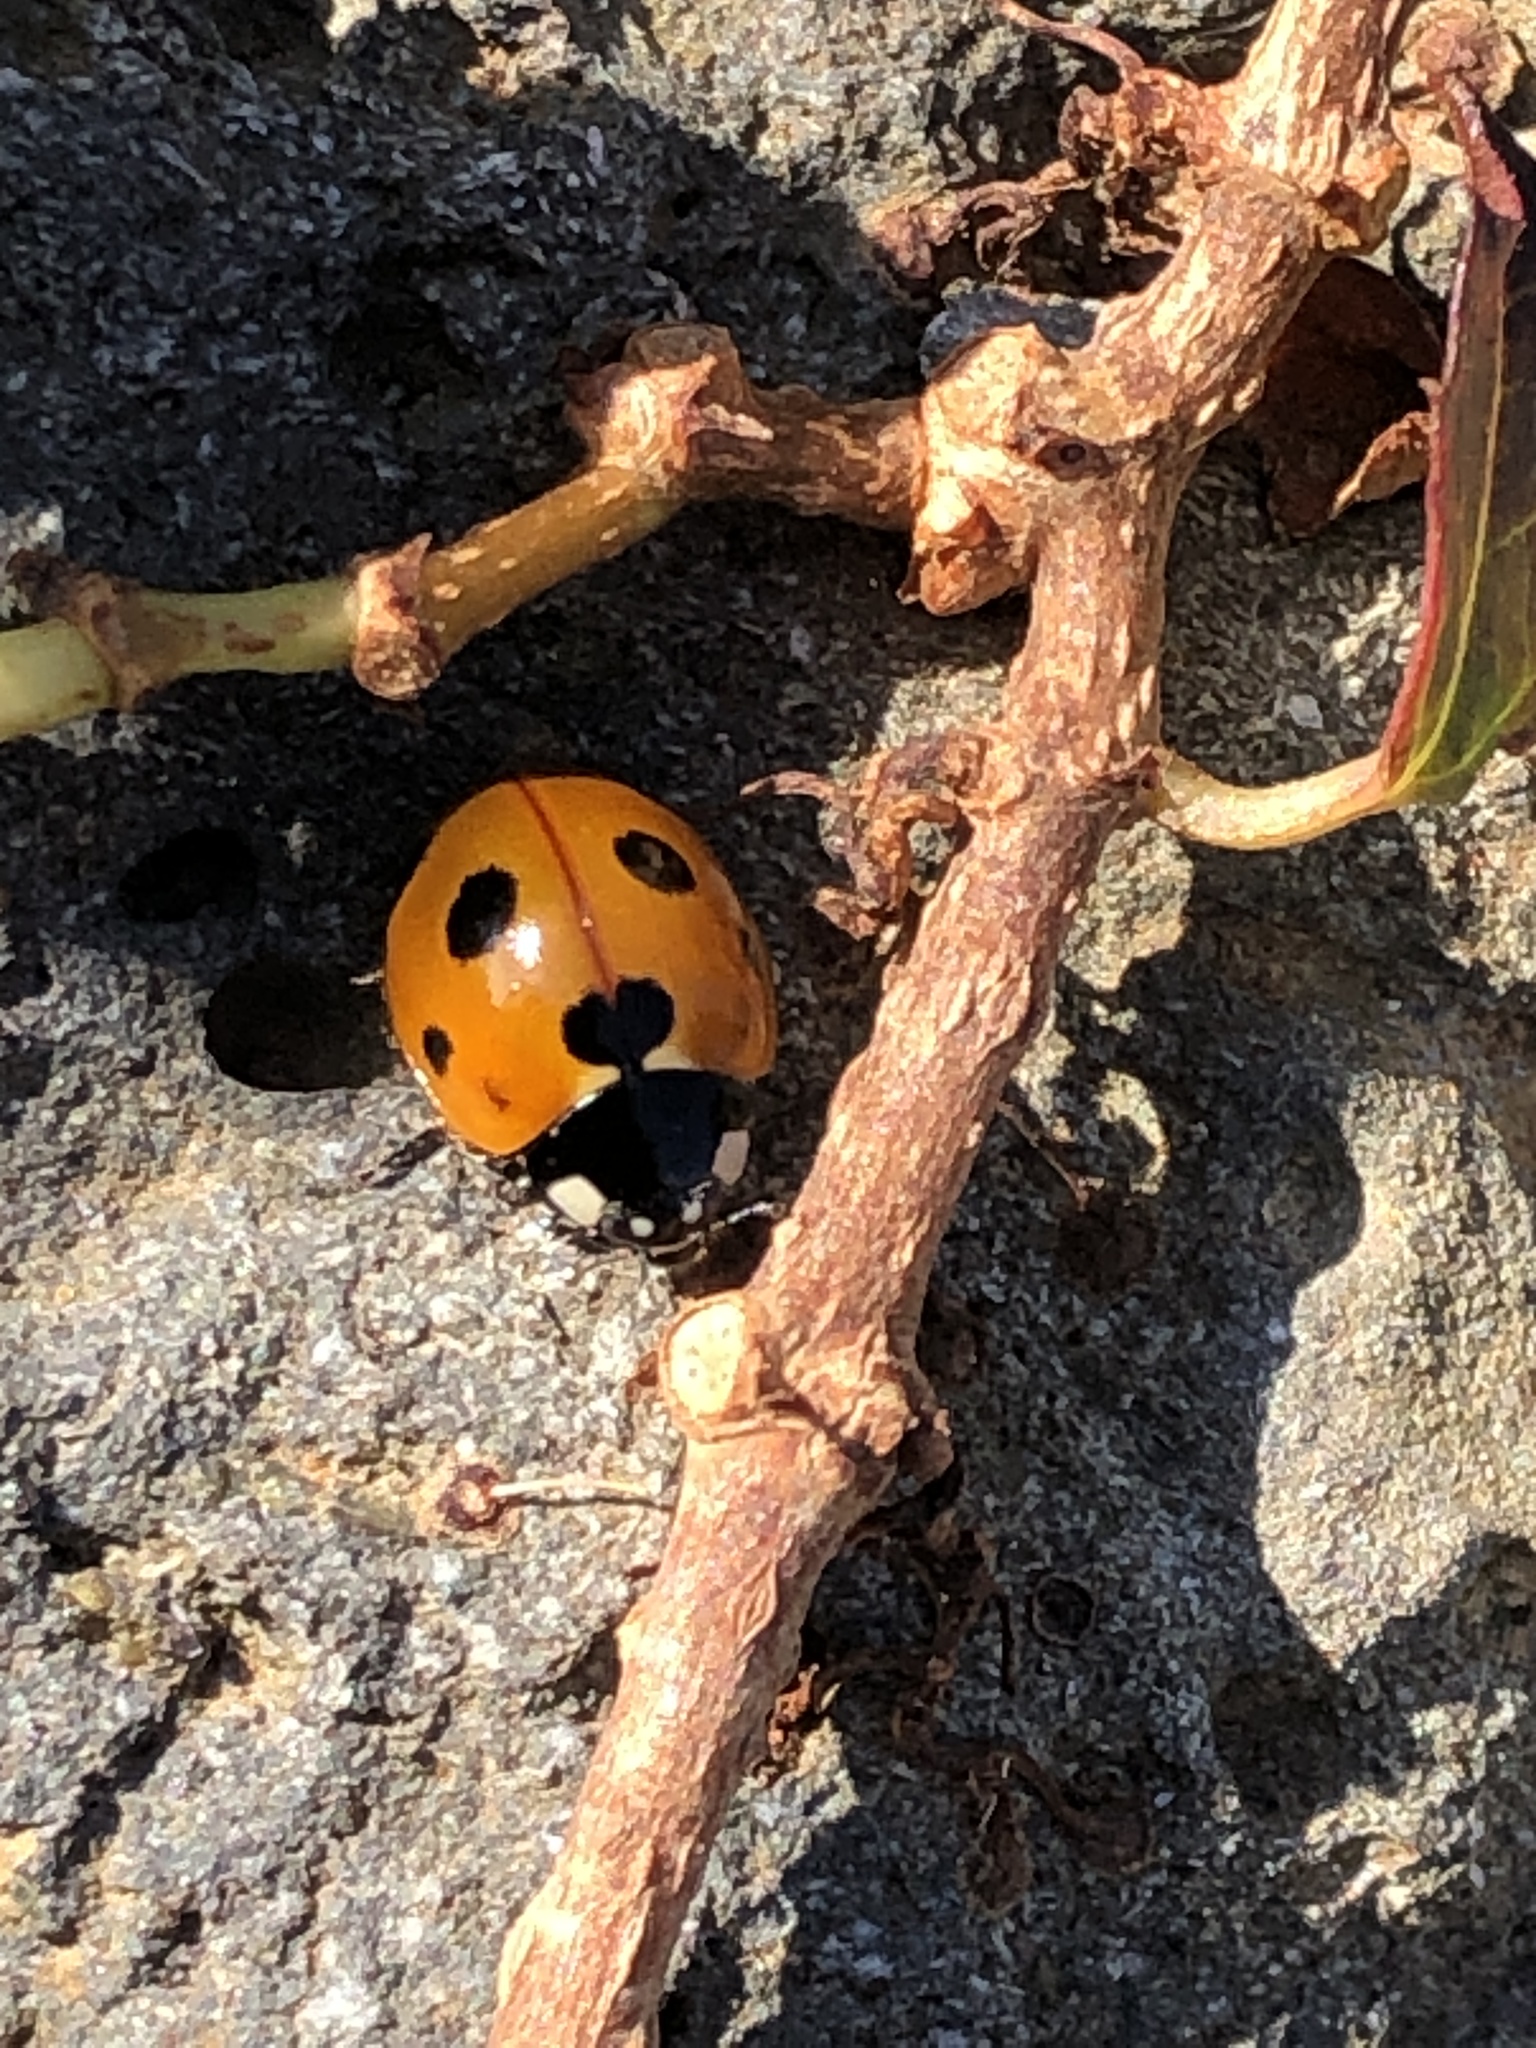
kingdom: Animalia
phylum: Arthropoda
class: Insecta
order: Coleoptera
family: Coccinellidae
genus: Coccinella
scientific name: Coccinella septempunctata
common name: Sevenspotted lady beetle
